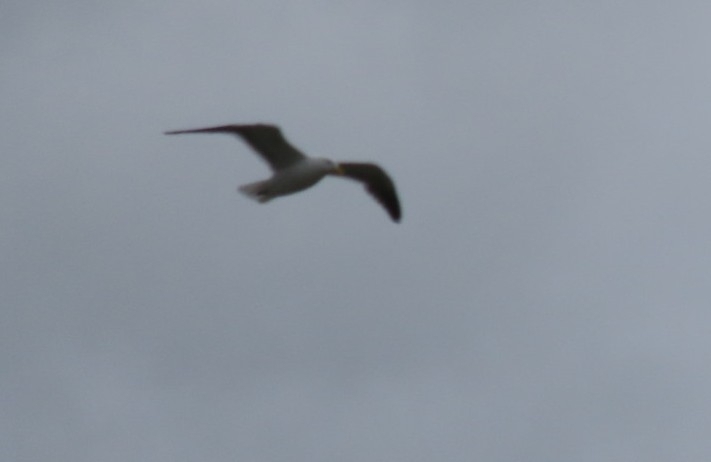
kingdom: Animalia
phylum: Chordata
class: Aves
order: Charadriiformes
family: Laridae
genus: Larus
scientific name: Larus dominicanus
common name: Kelp gull
